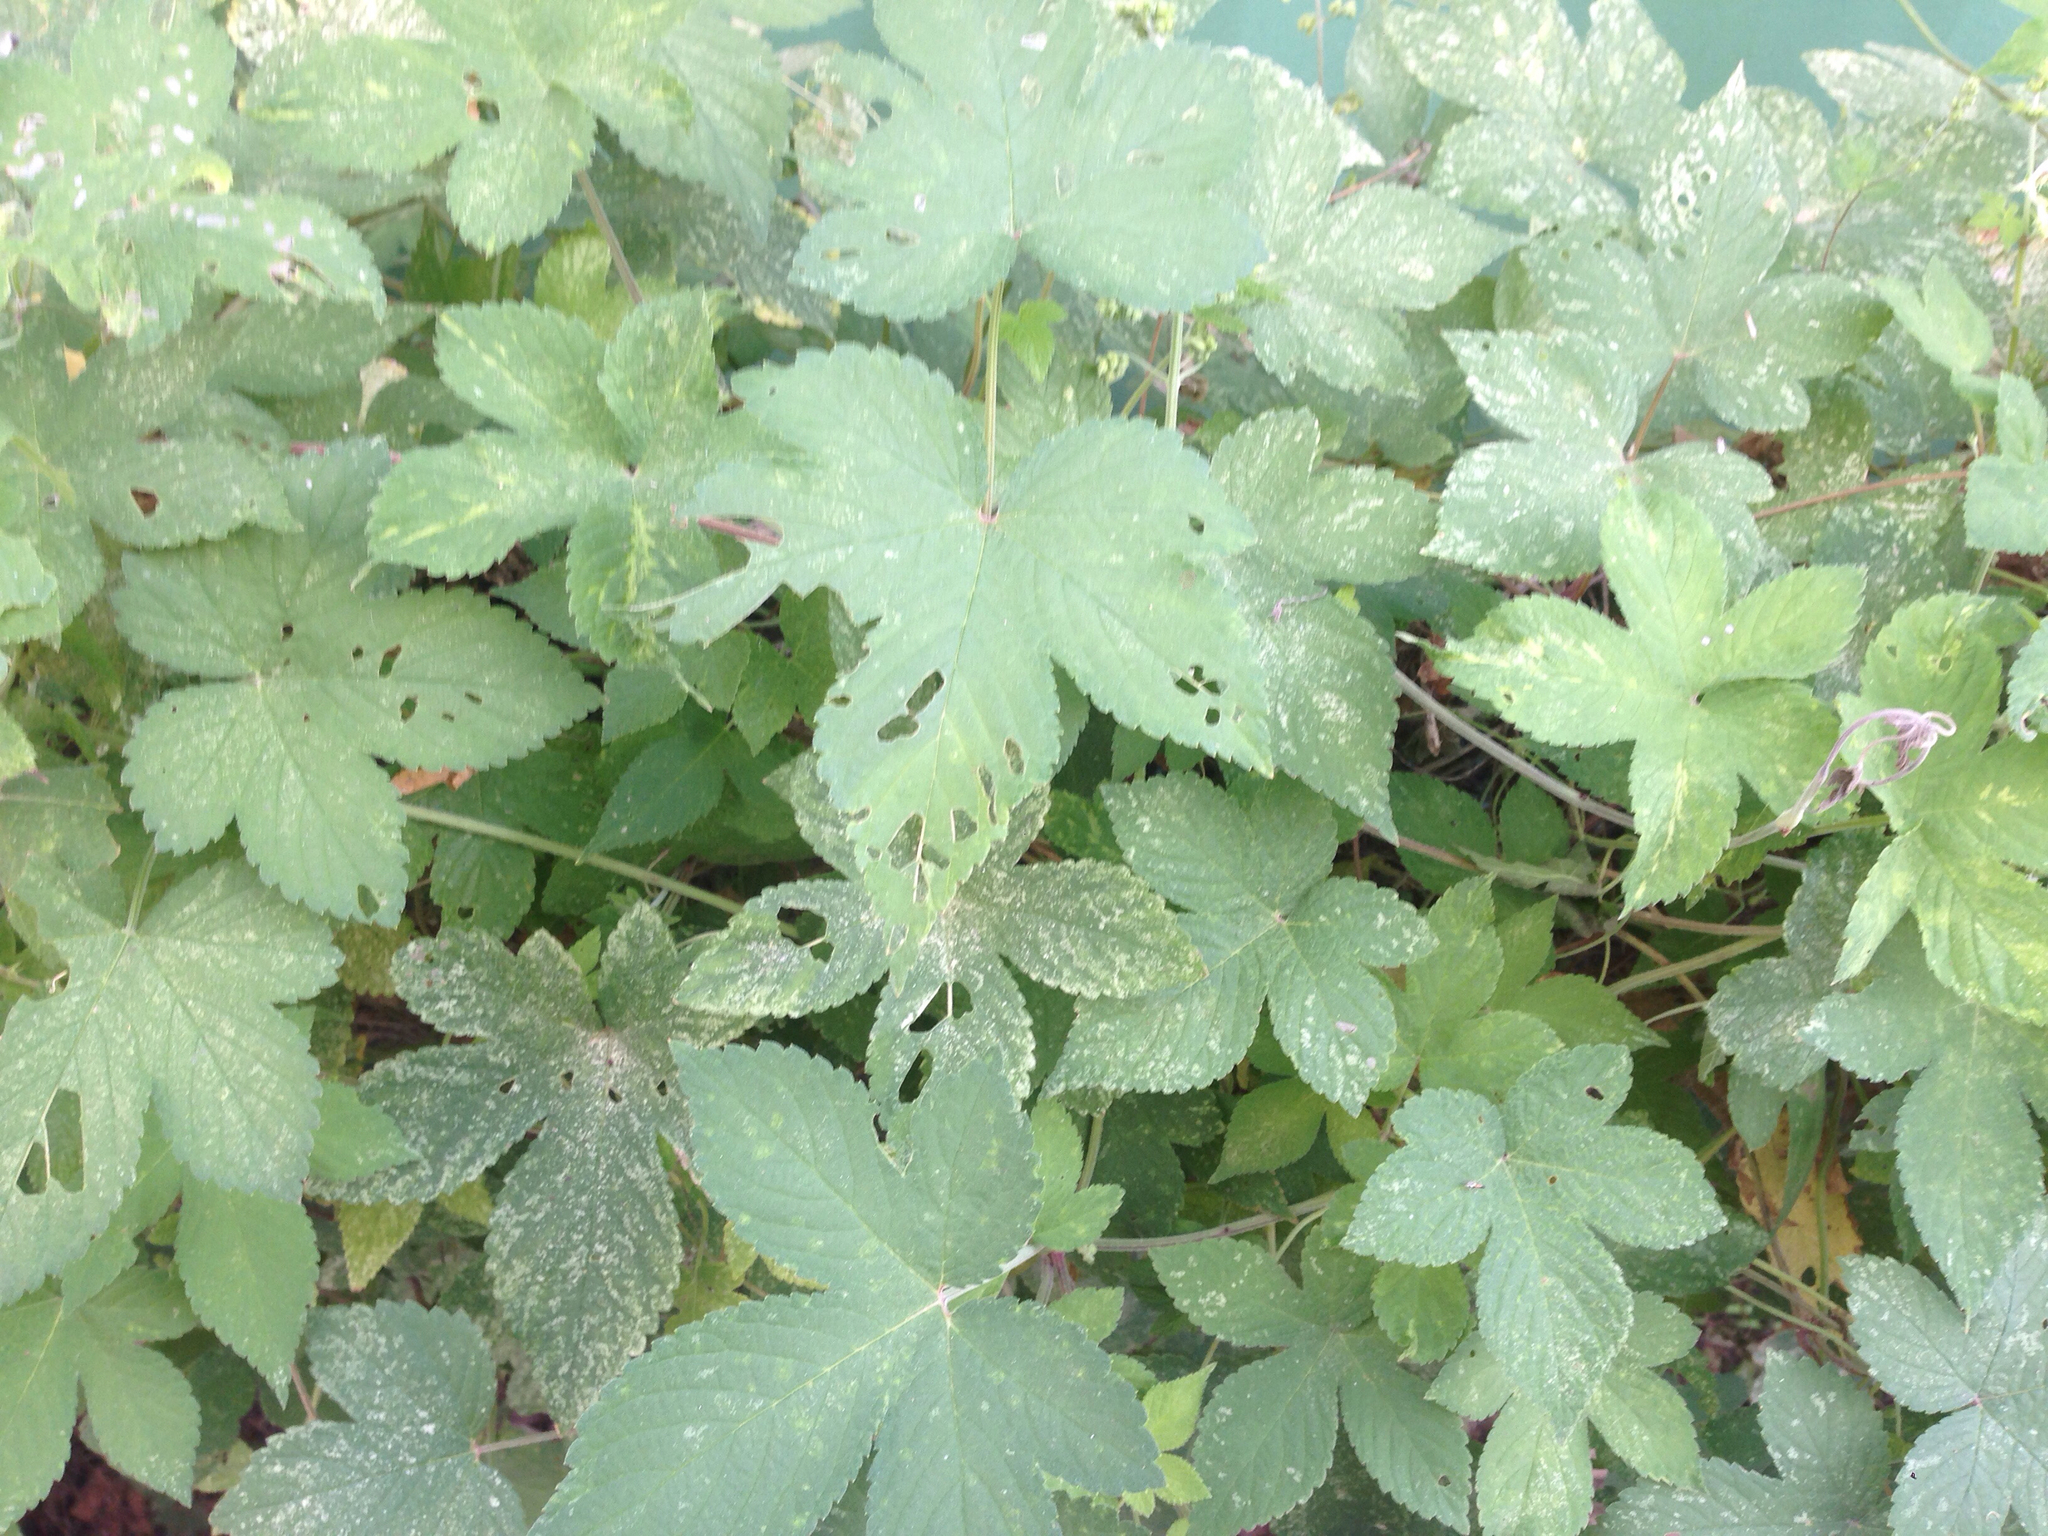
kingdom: Plantae
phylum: Tracheophyta
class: Magnoliopsida
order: Rosales
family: Cannabaceae
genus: Humulus
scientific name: Humulus scandens
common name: Japanese hop
